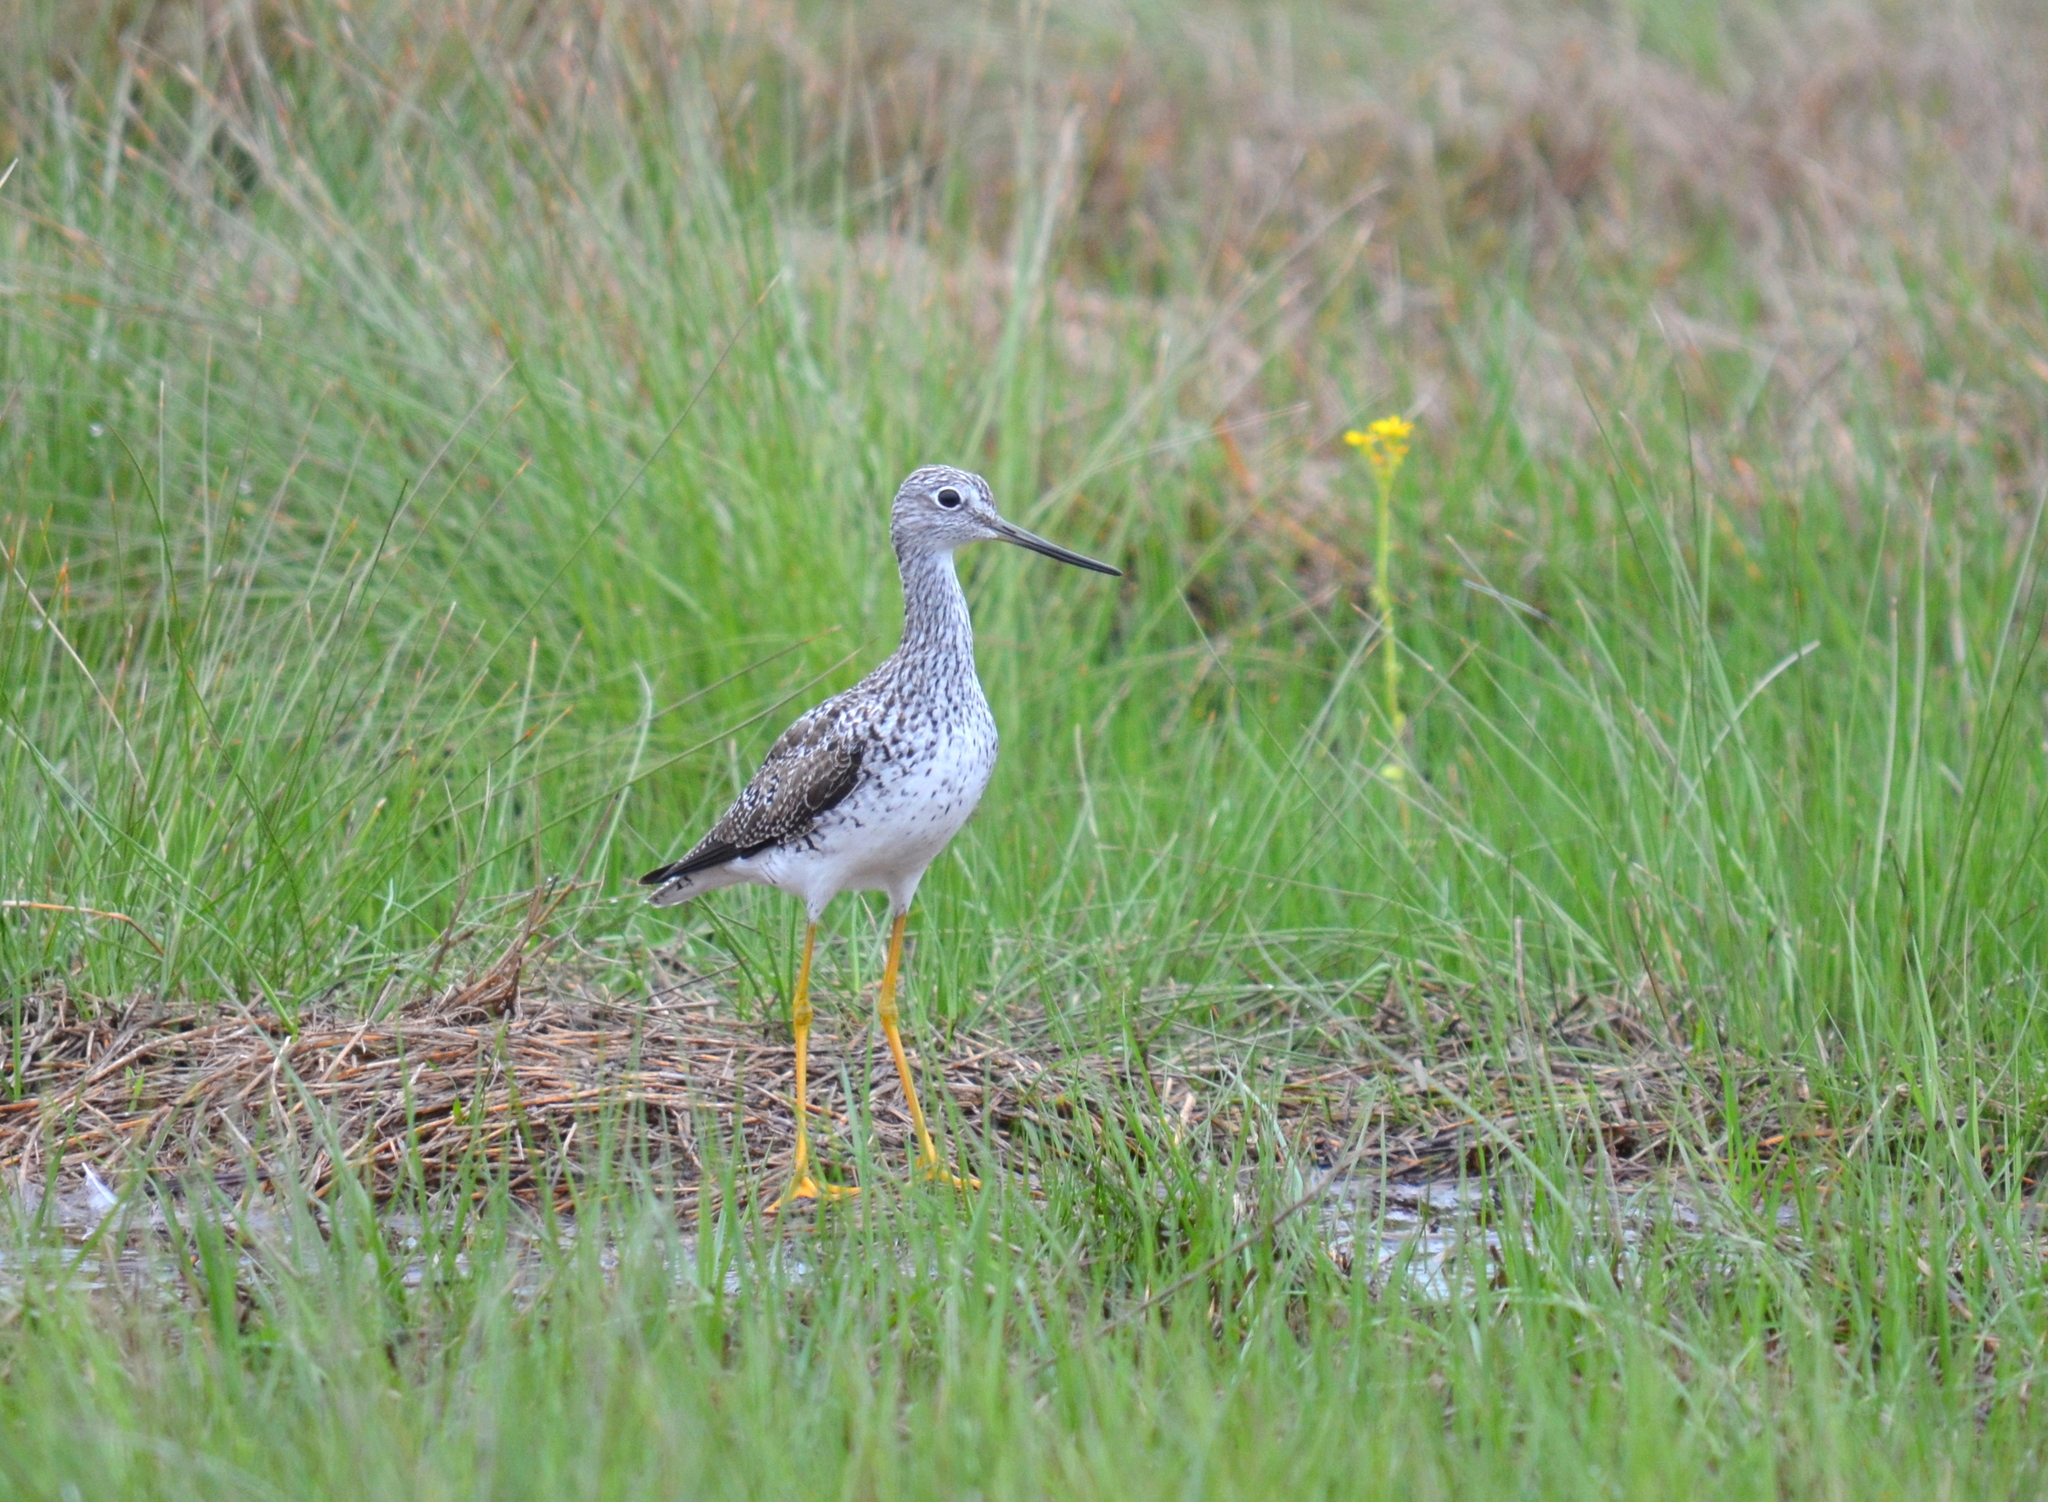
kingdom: Animalia
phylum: Chordata
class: Aves
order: Charadriiformes
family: Scolopacidae
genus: Tringa
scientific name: Tringa melanoleuca
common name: Greater yellowlegs
